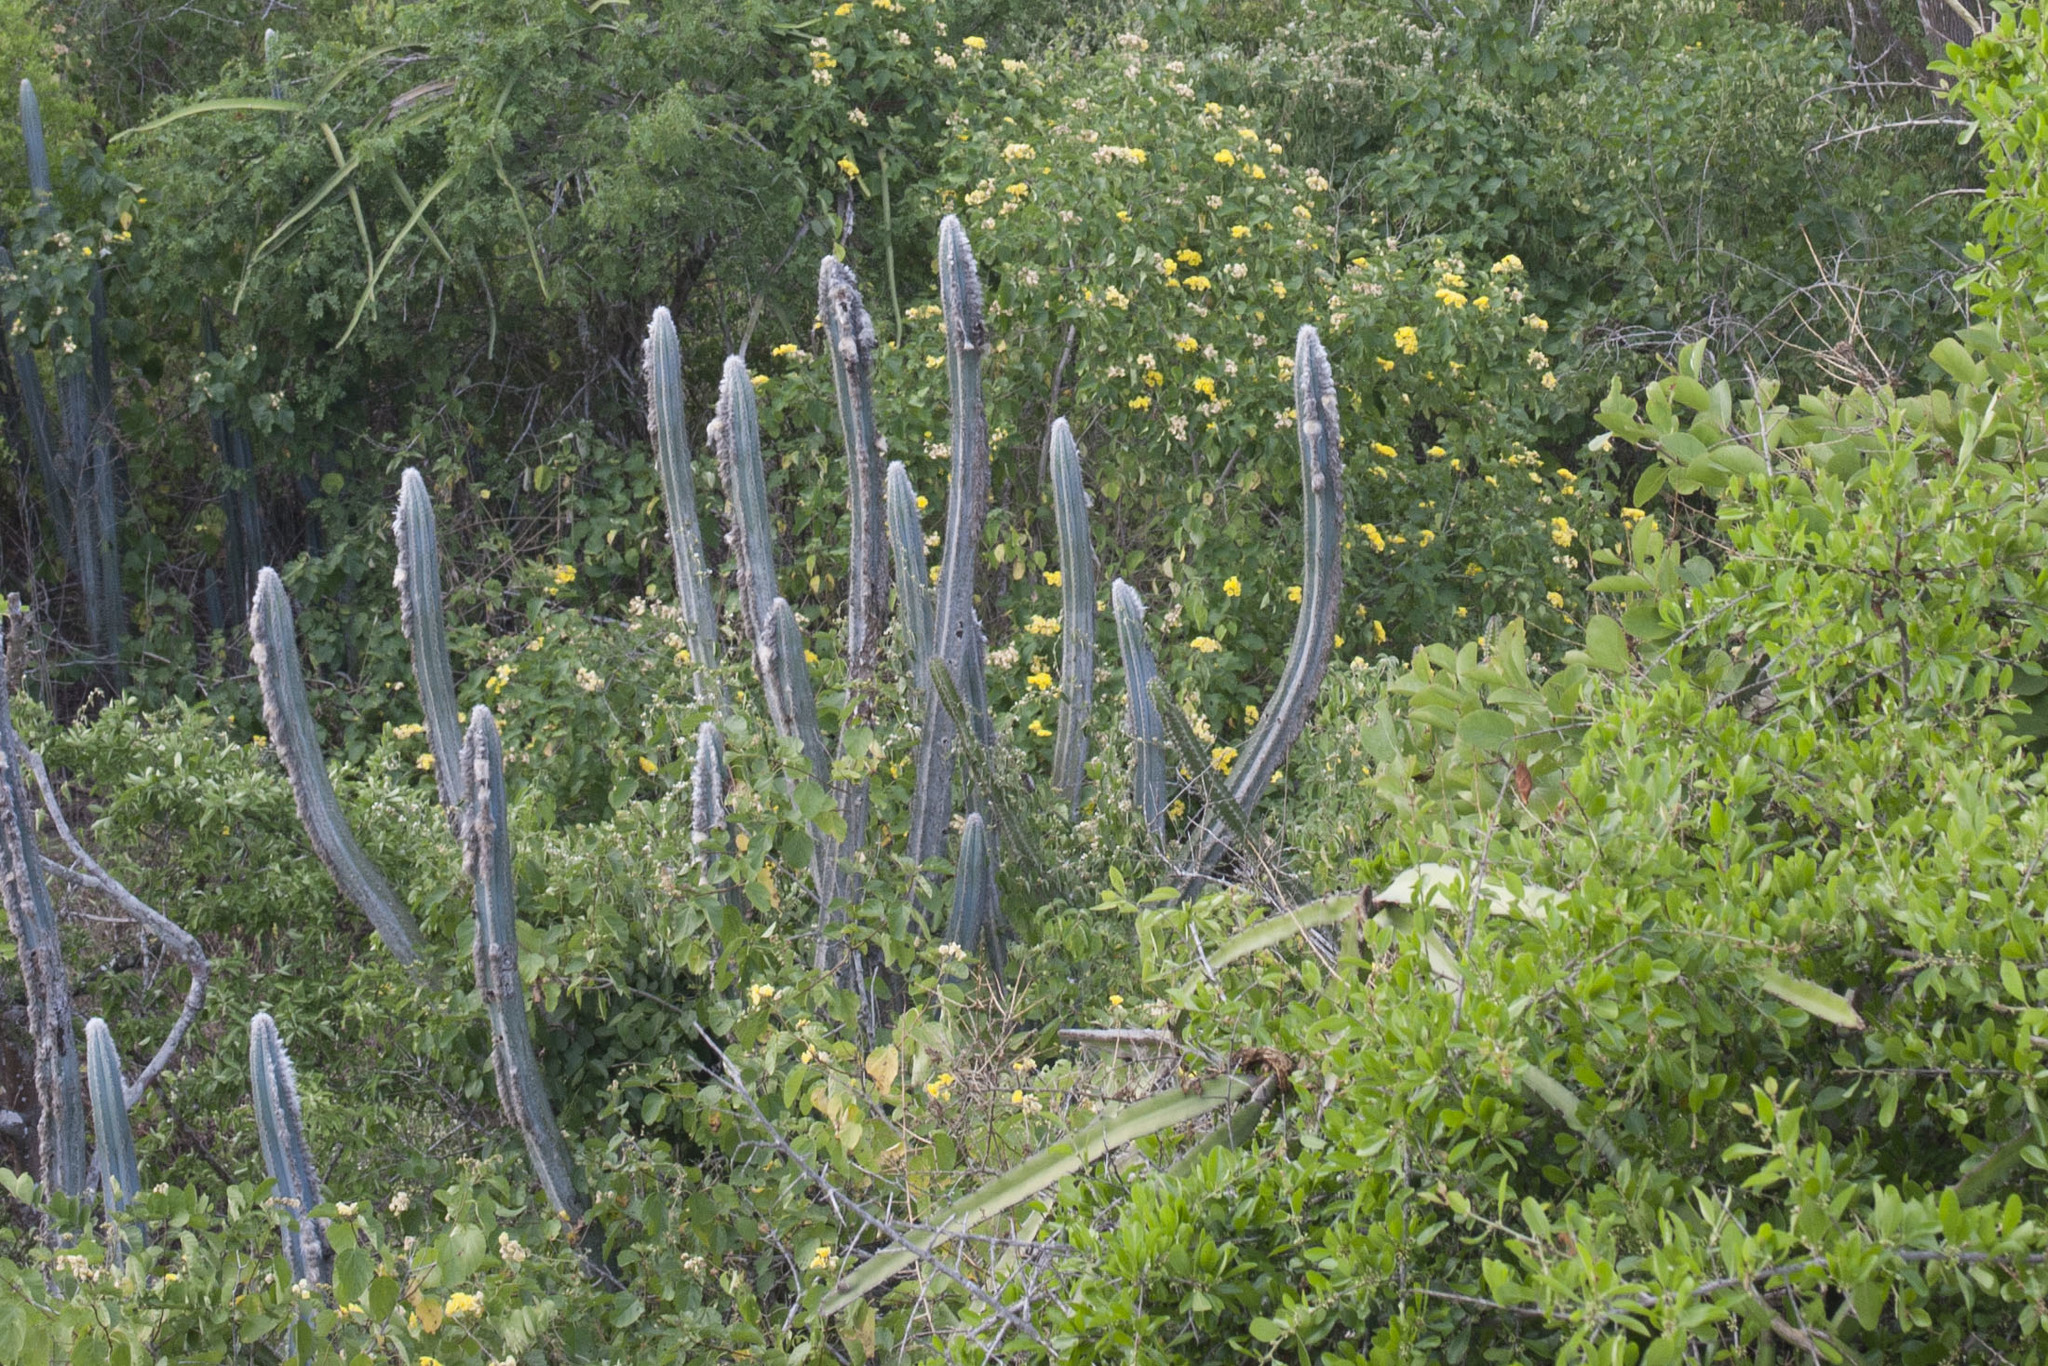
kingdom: Plantae
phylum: Tracheophyta
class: Magnoliopsida
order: Caryophyllales
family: Cactaceae
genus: Pilosocereus
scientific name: Pilosocereus lanuginosus
